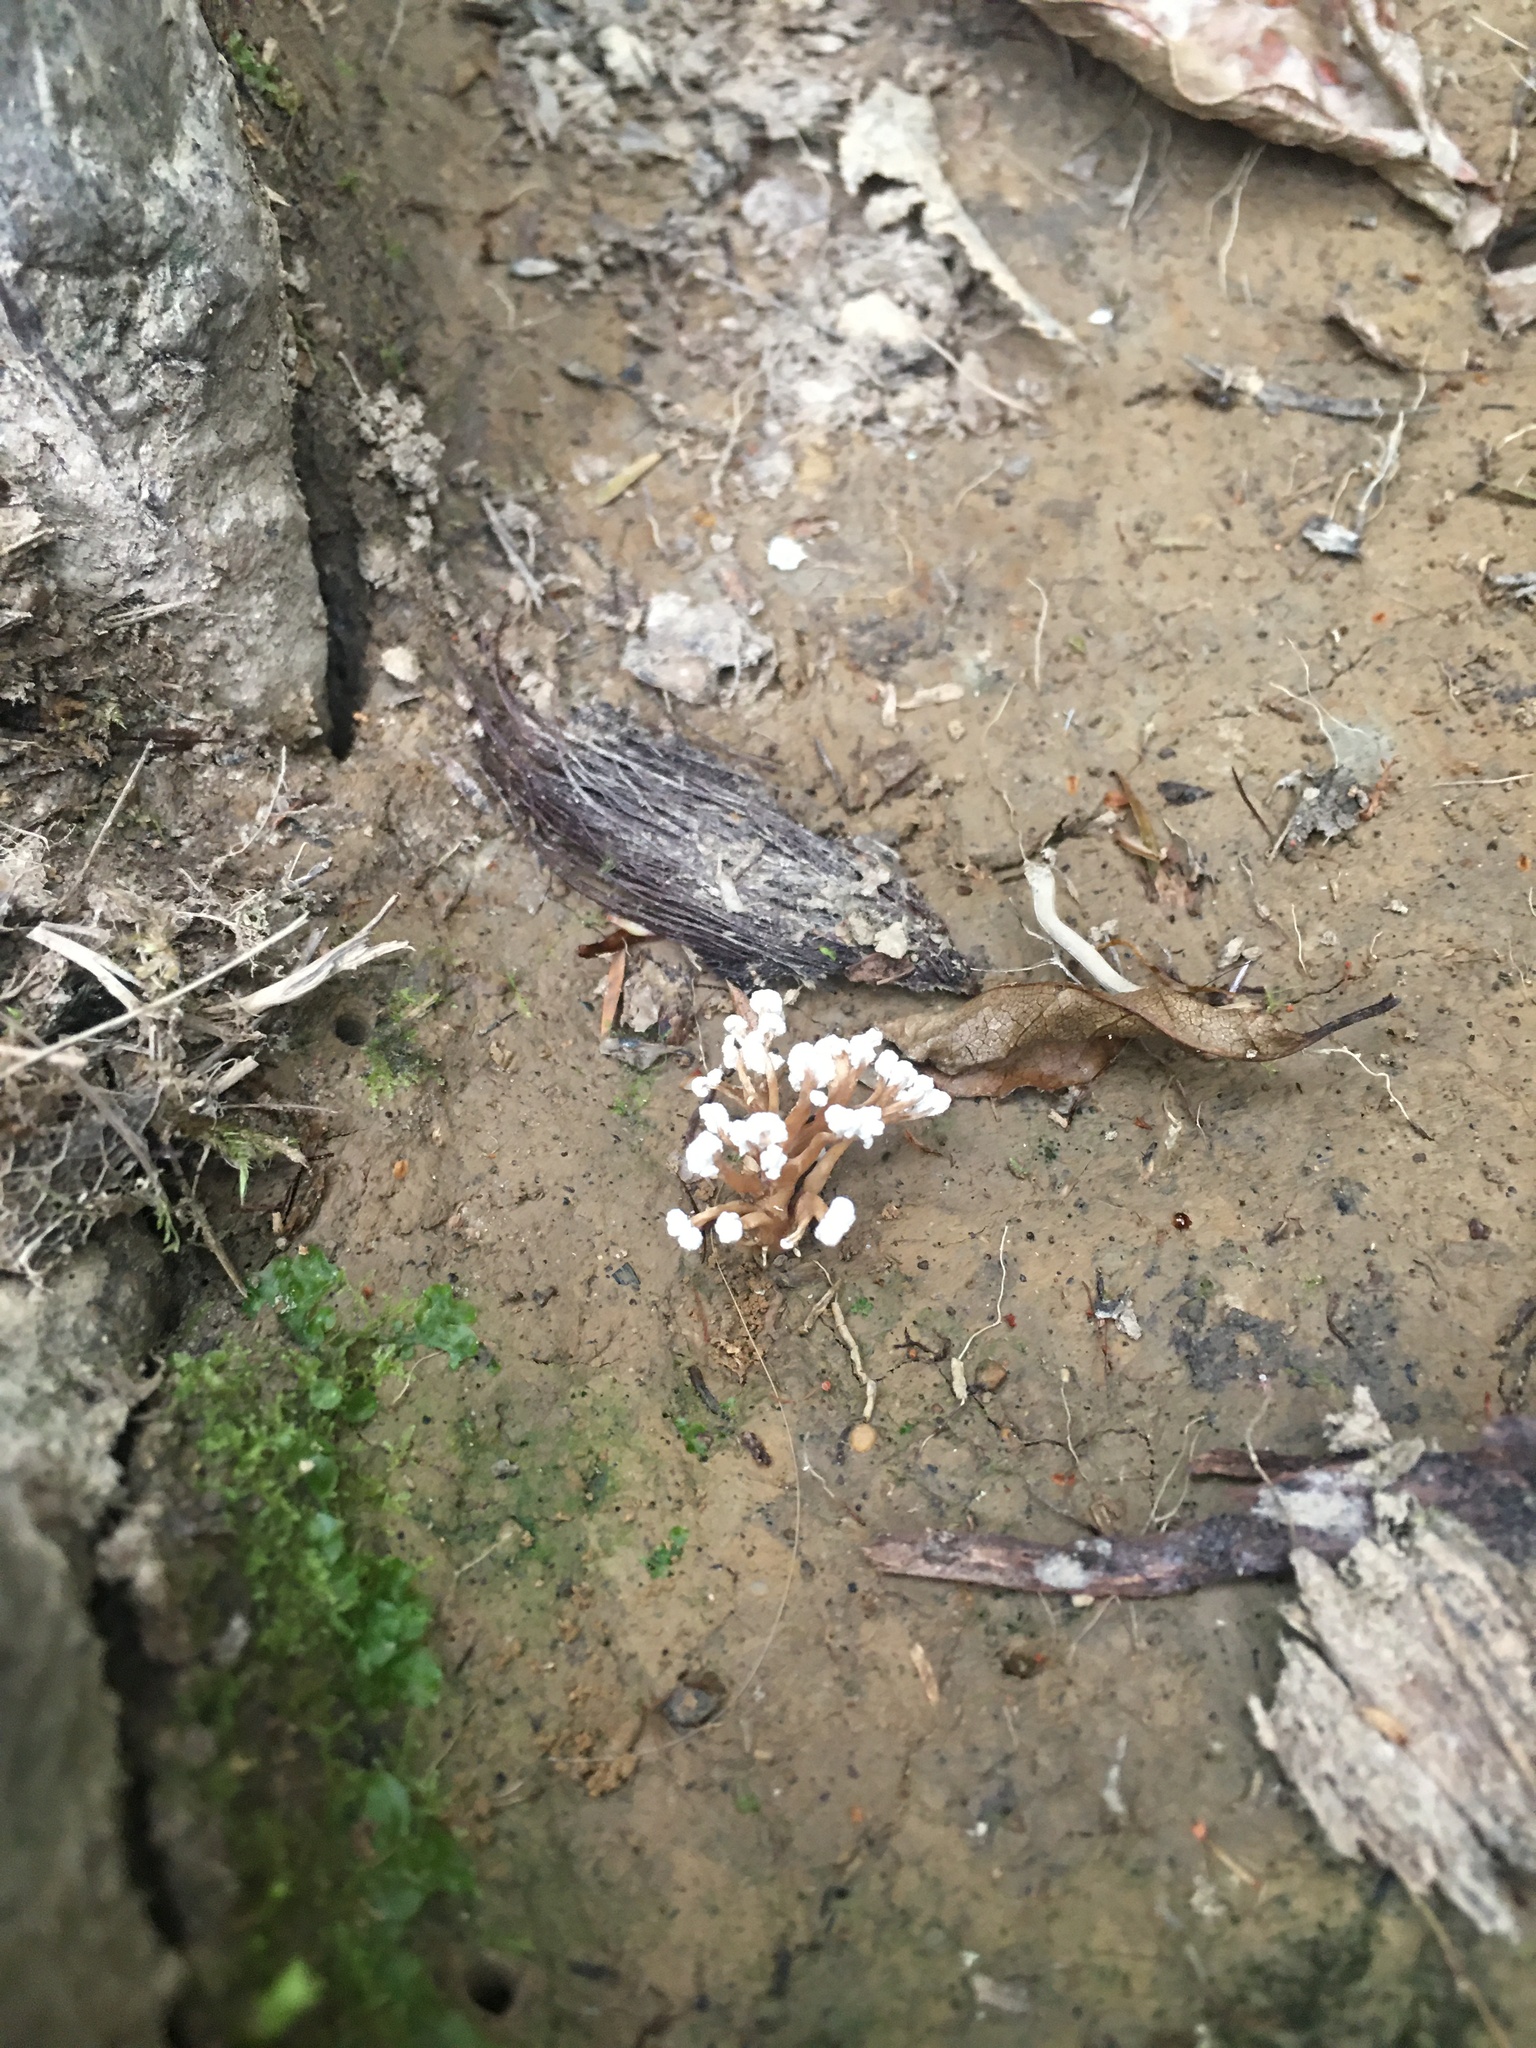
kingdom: Fungi
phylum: Ascomycota
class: Sordariomycetes
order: Hypocreales
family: Cordycipitaceae
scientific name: Cordycipitaceae
